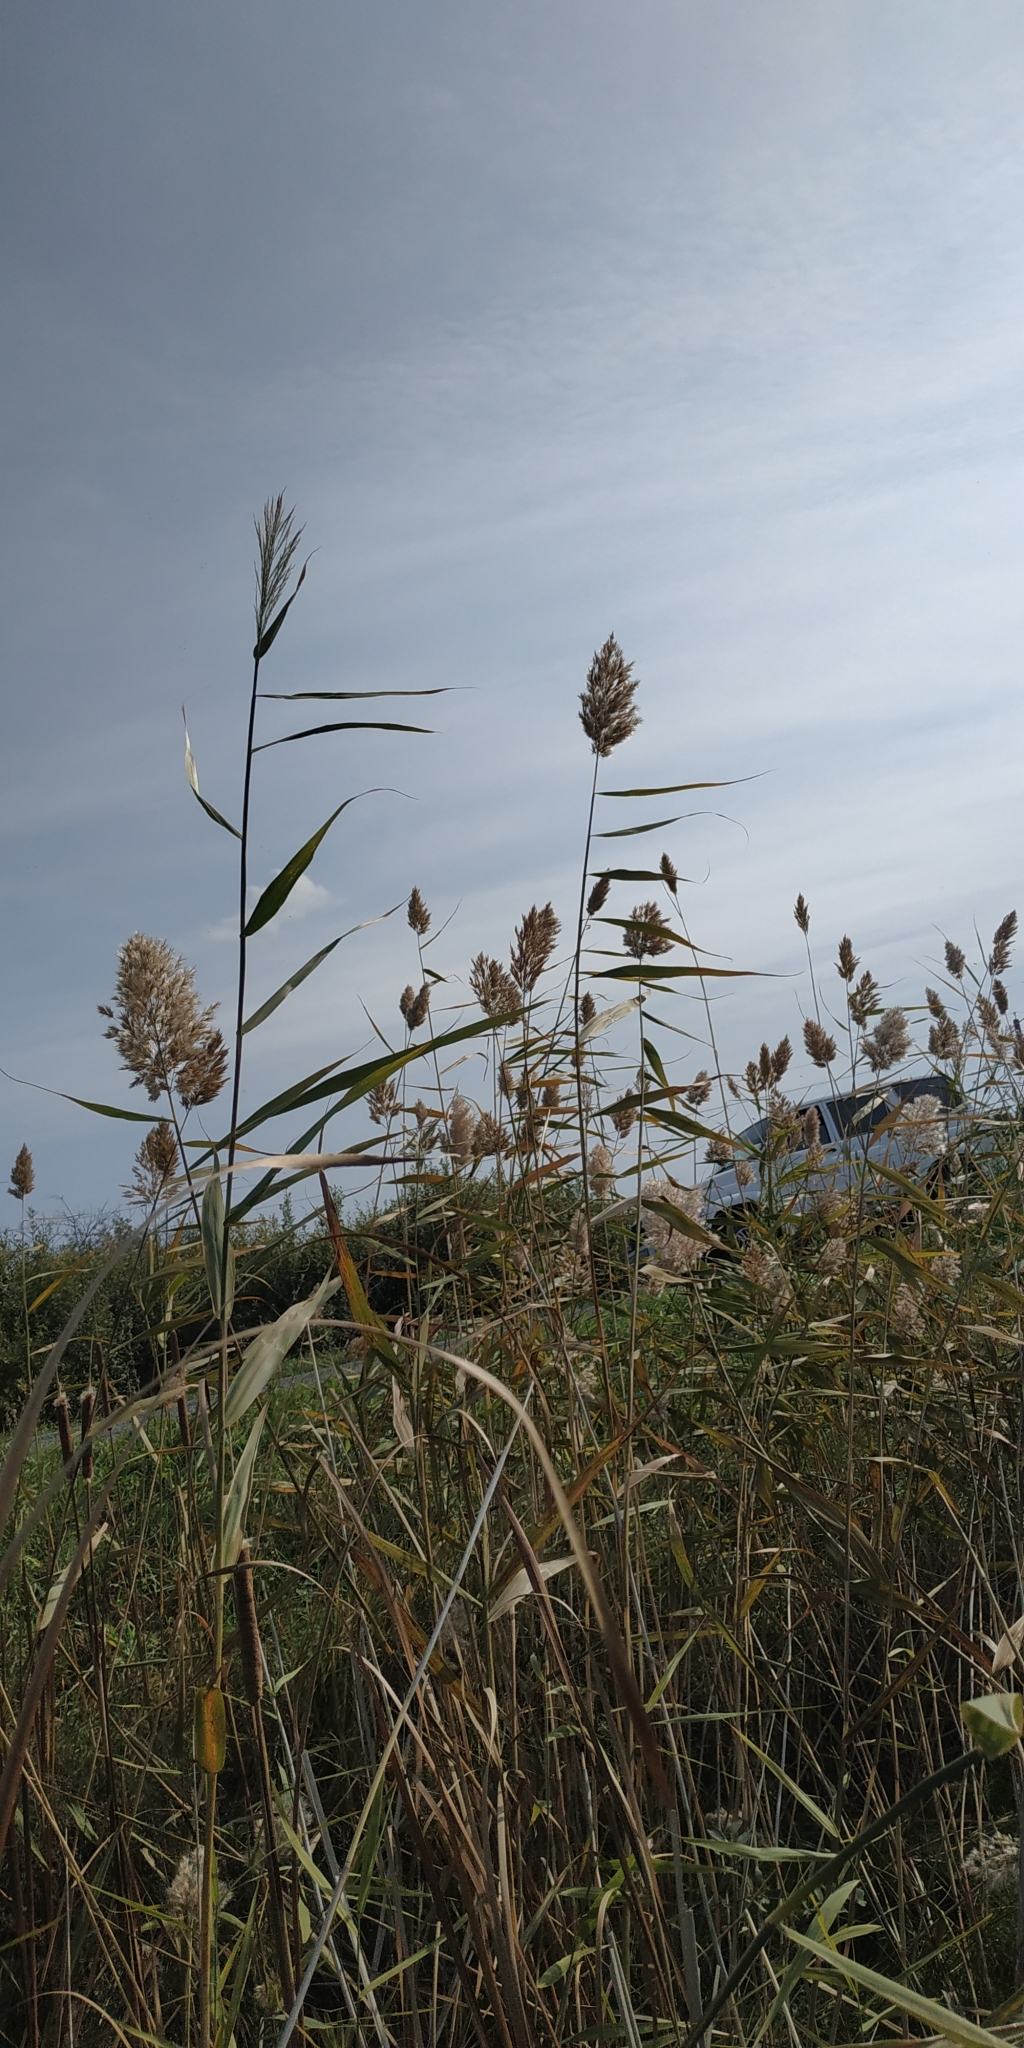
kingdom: Plantae
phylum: Tracheophyta
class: Liliopsida
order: Poales
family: Poaceae
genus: Phragmites
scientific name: Phragmites australis
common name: Common reed
